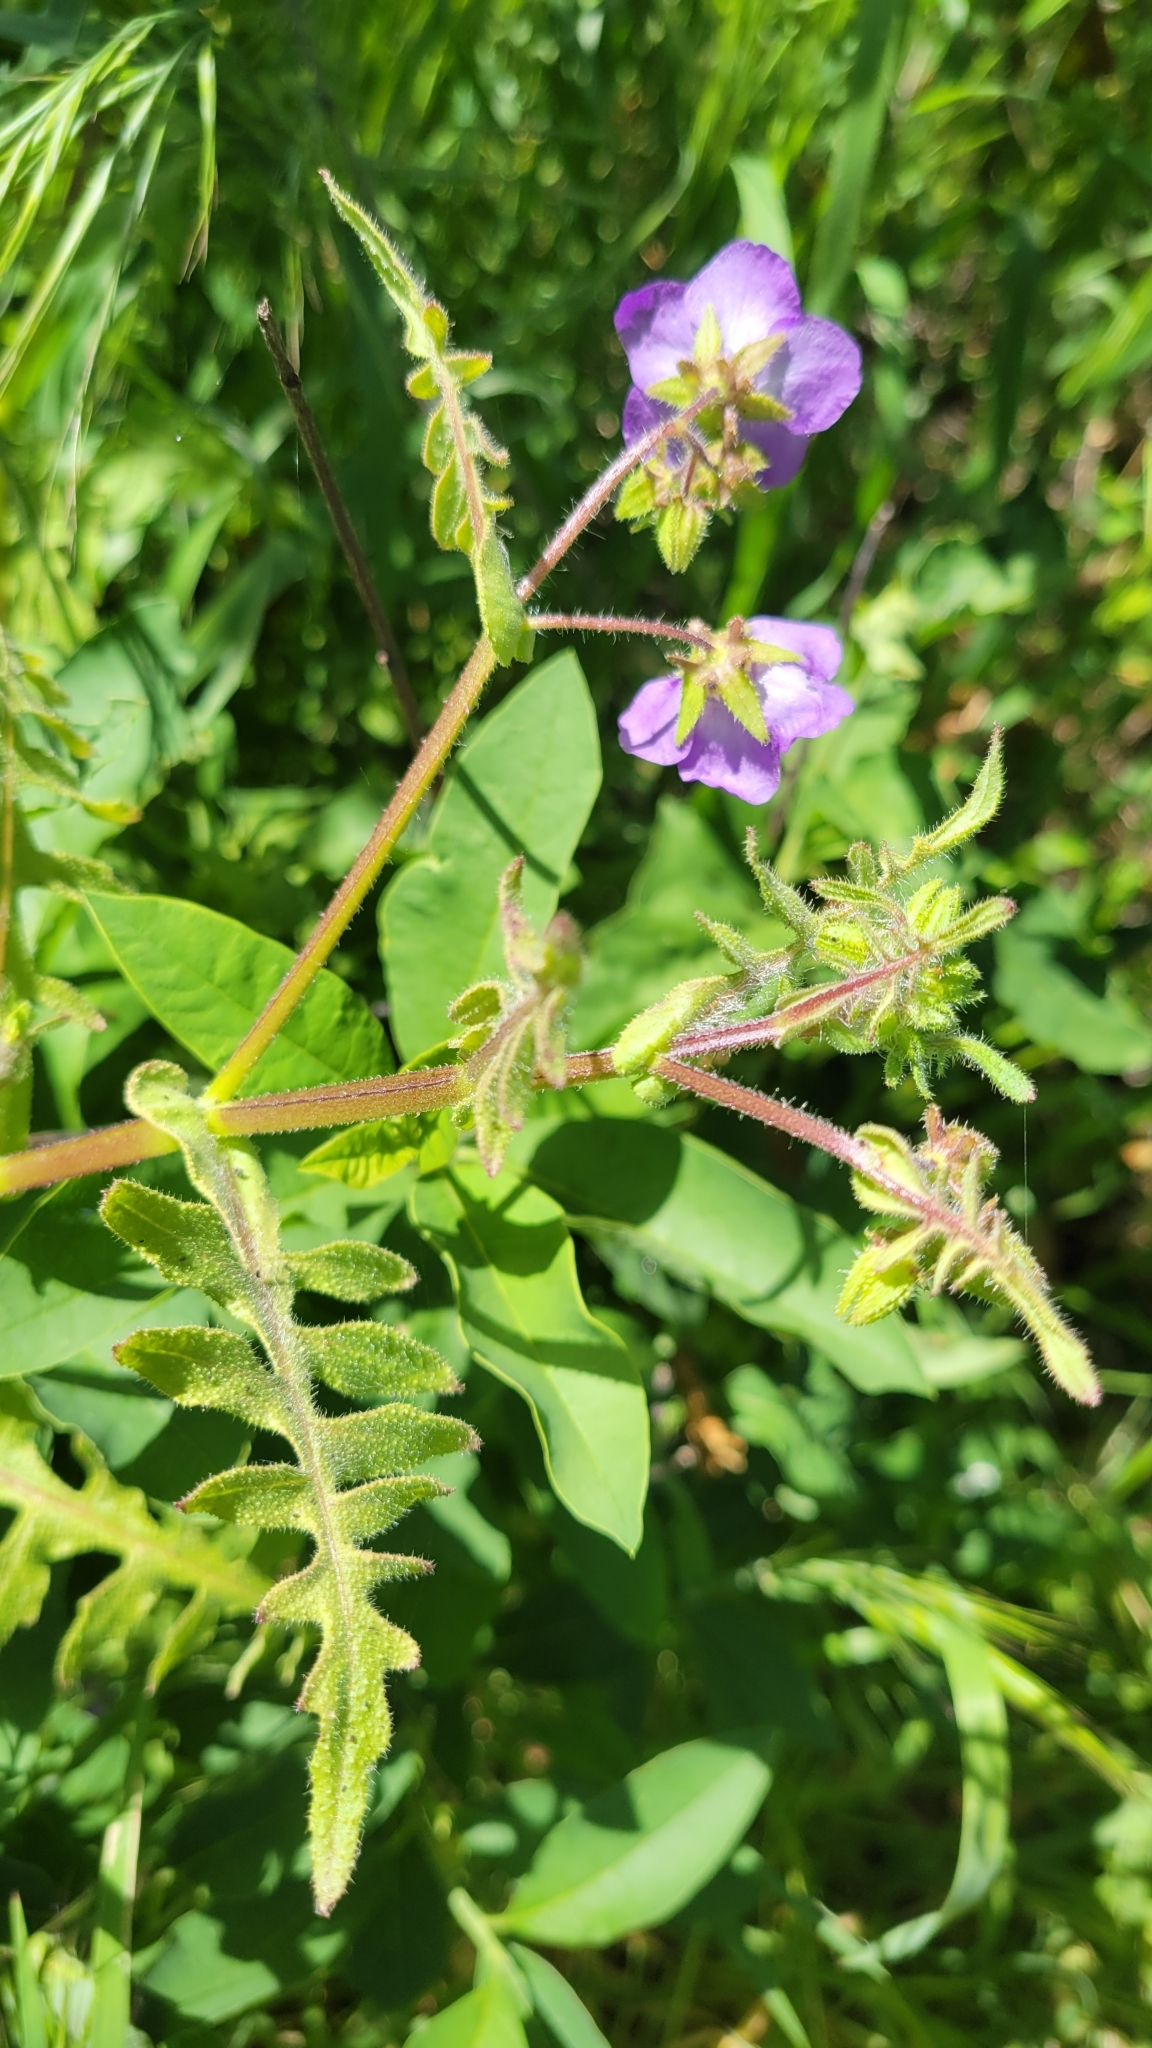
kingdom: Plantae
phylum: Tracheophyta
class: Magnoliopsida
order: Boraginales
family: Hydrophyllaceae
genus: Pholistoma
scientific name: Pholistoma auritum
